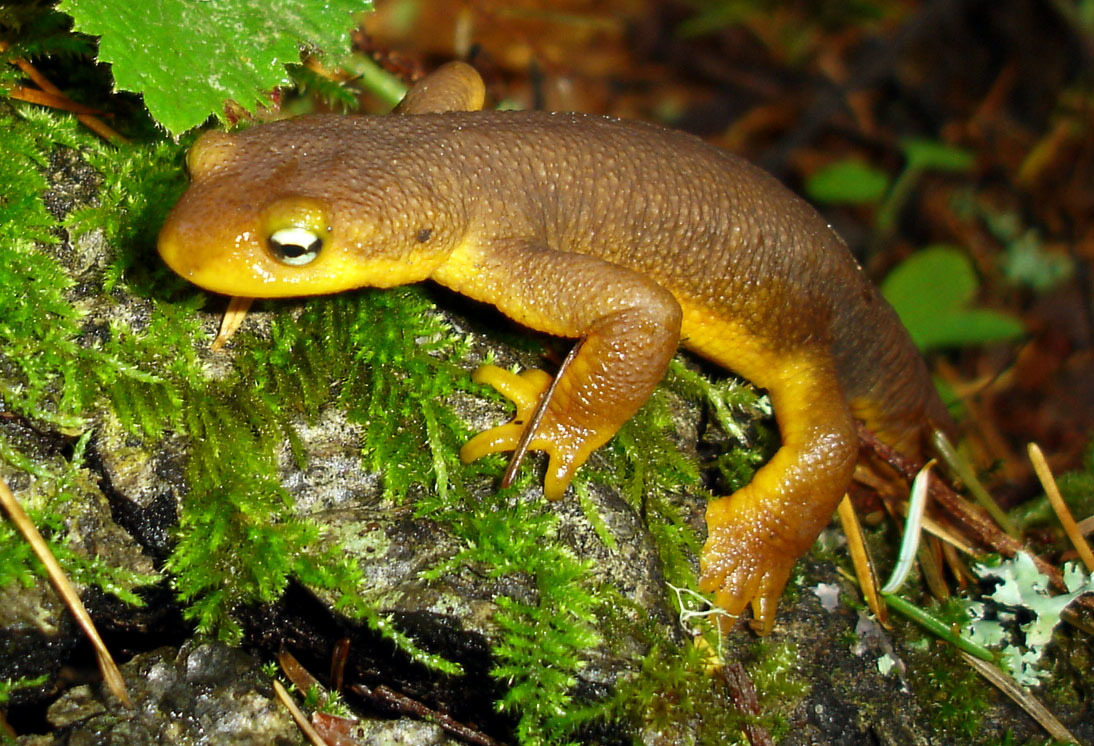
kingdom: Animalia
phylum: Chordata
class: Amphibia
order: Caudata
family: Salamandridae
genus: Taricha
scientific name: Taricha torosa
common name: California newt
